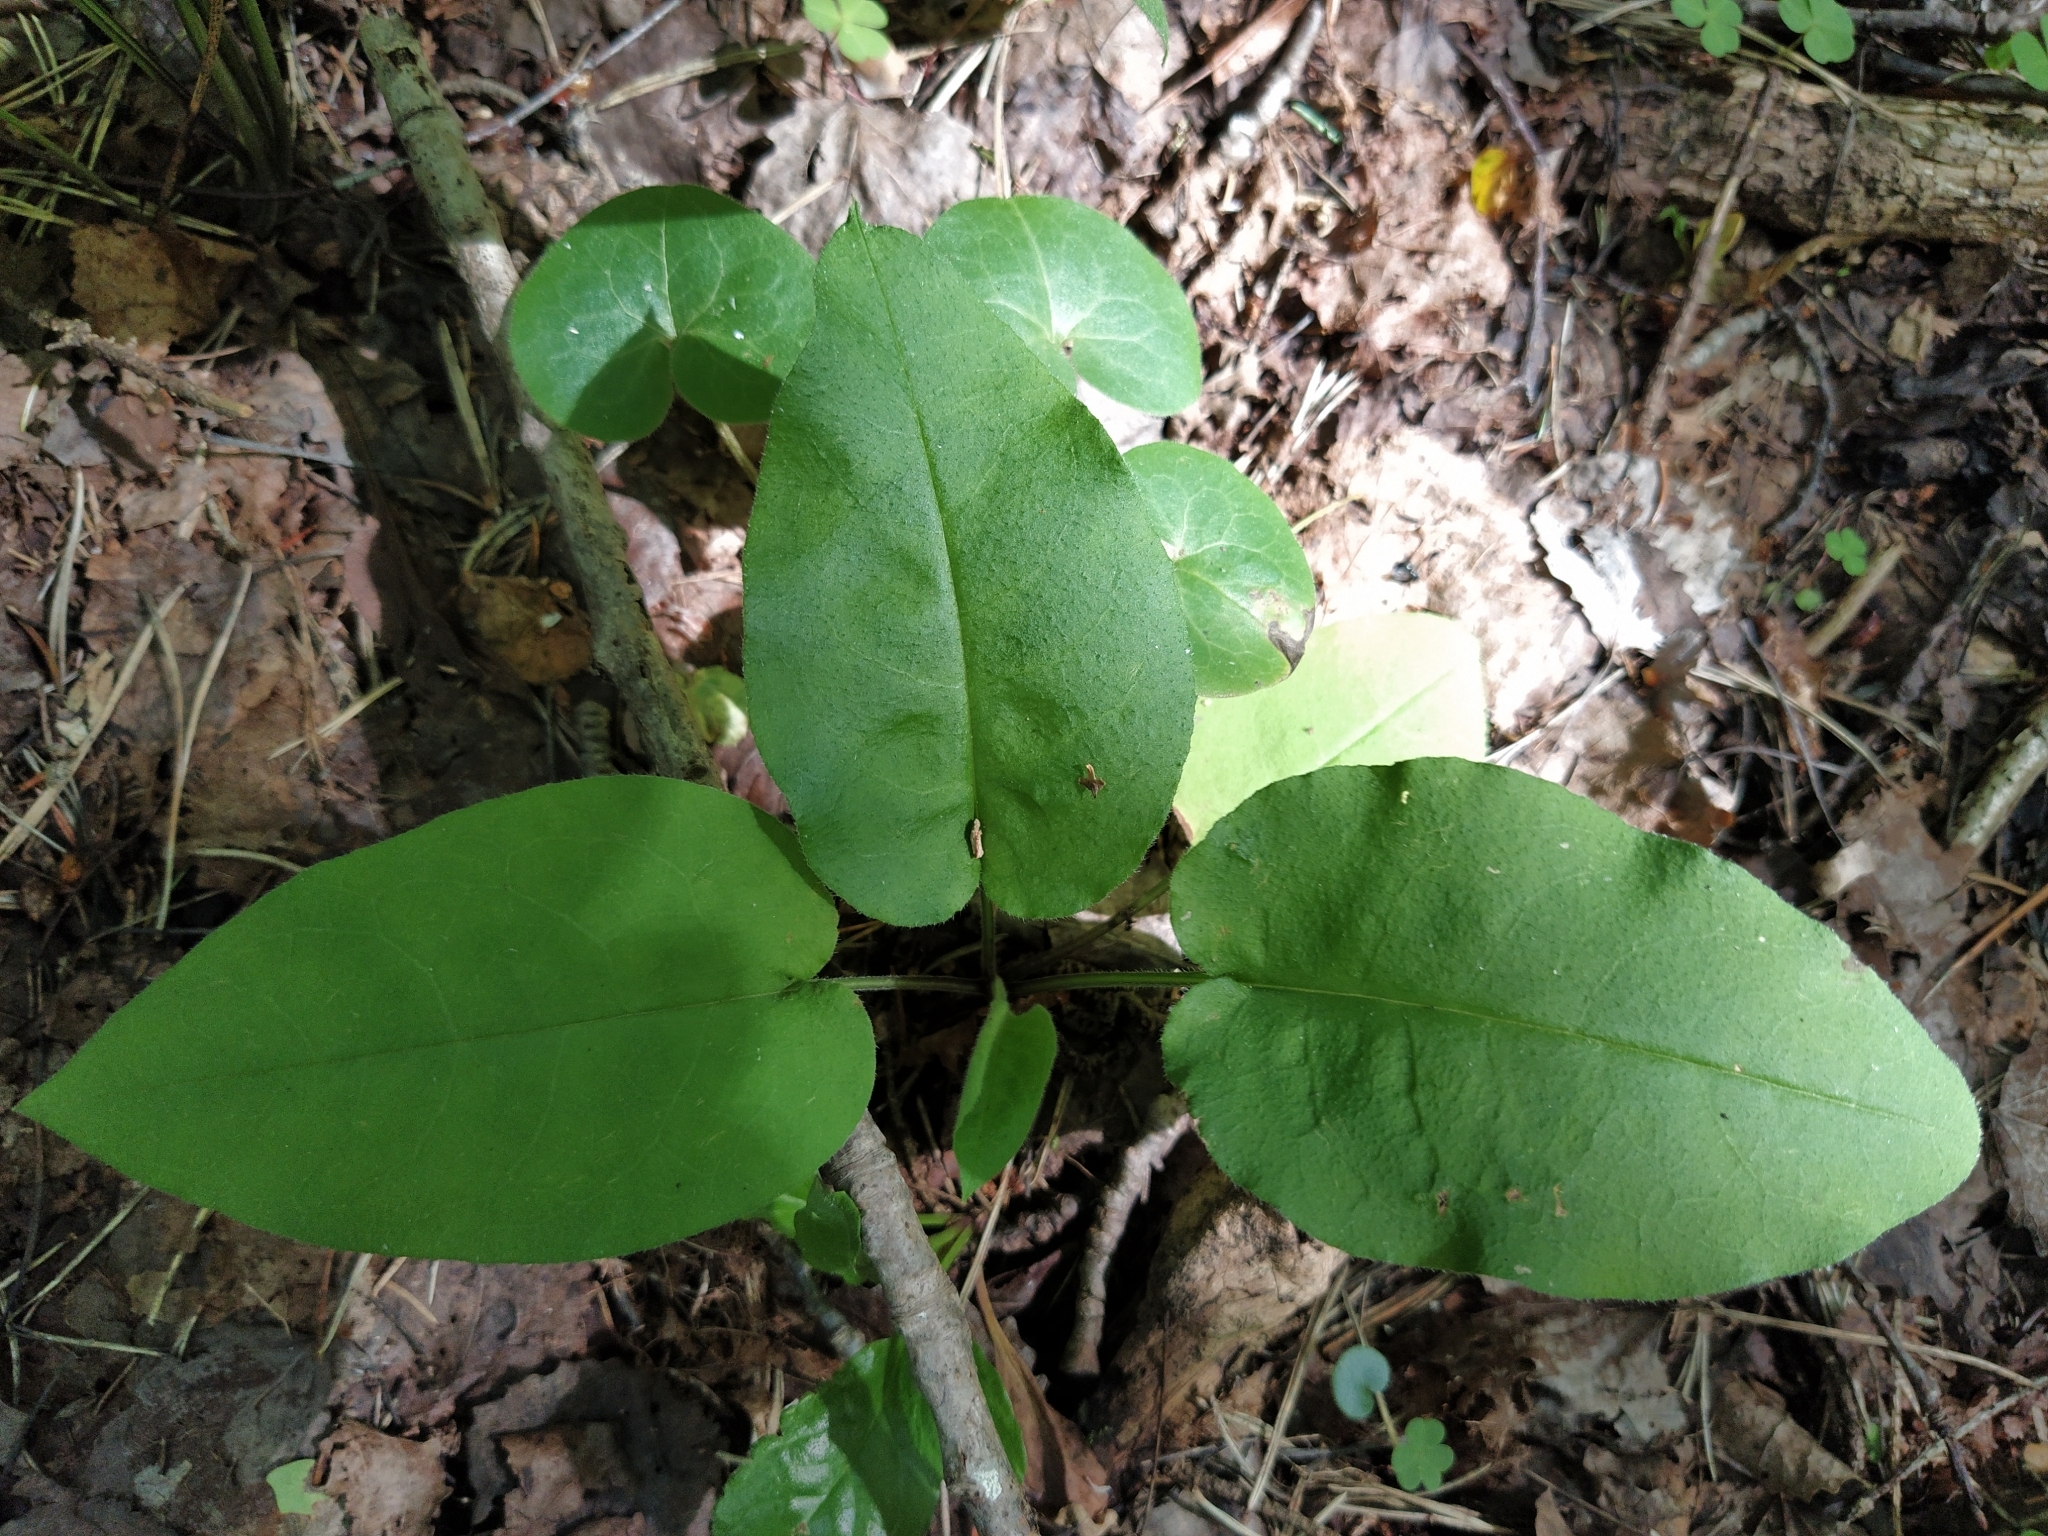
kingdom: Plantae
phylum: Tracheophyta
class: Magnoliopsida
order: Boraginales
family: Boraginaceae
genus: Pulmonaria
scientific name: Pulmonaria obscura
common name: Suffolk lungwort
